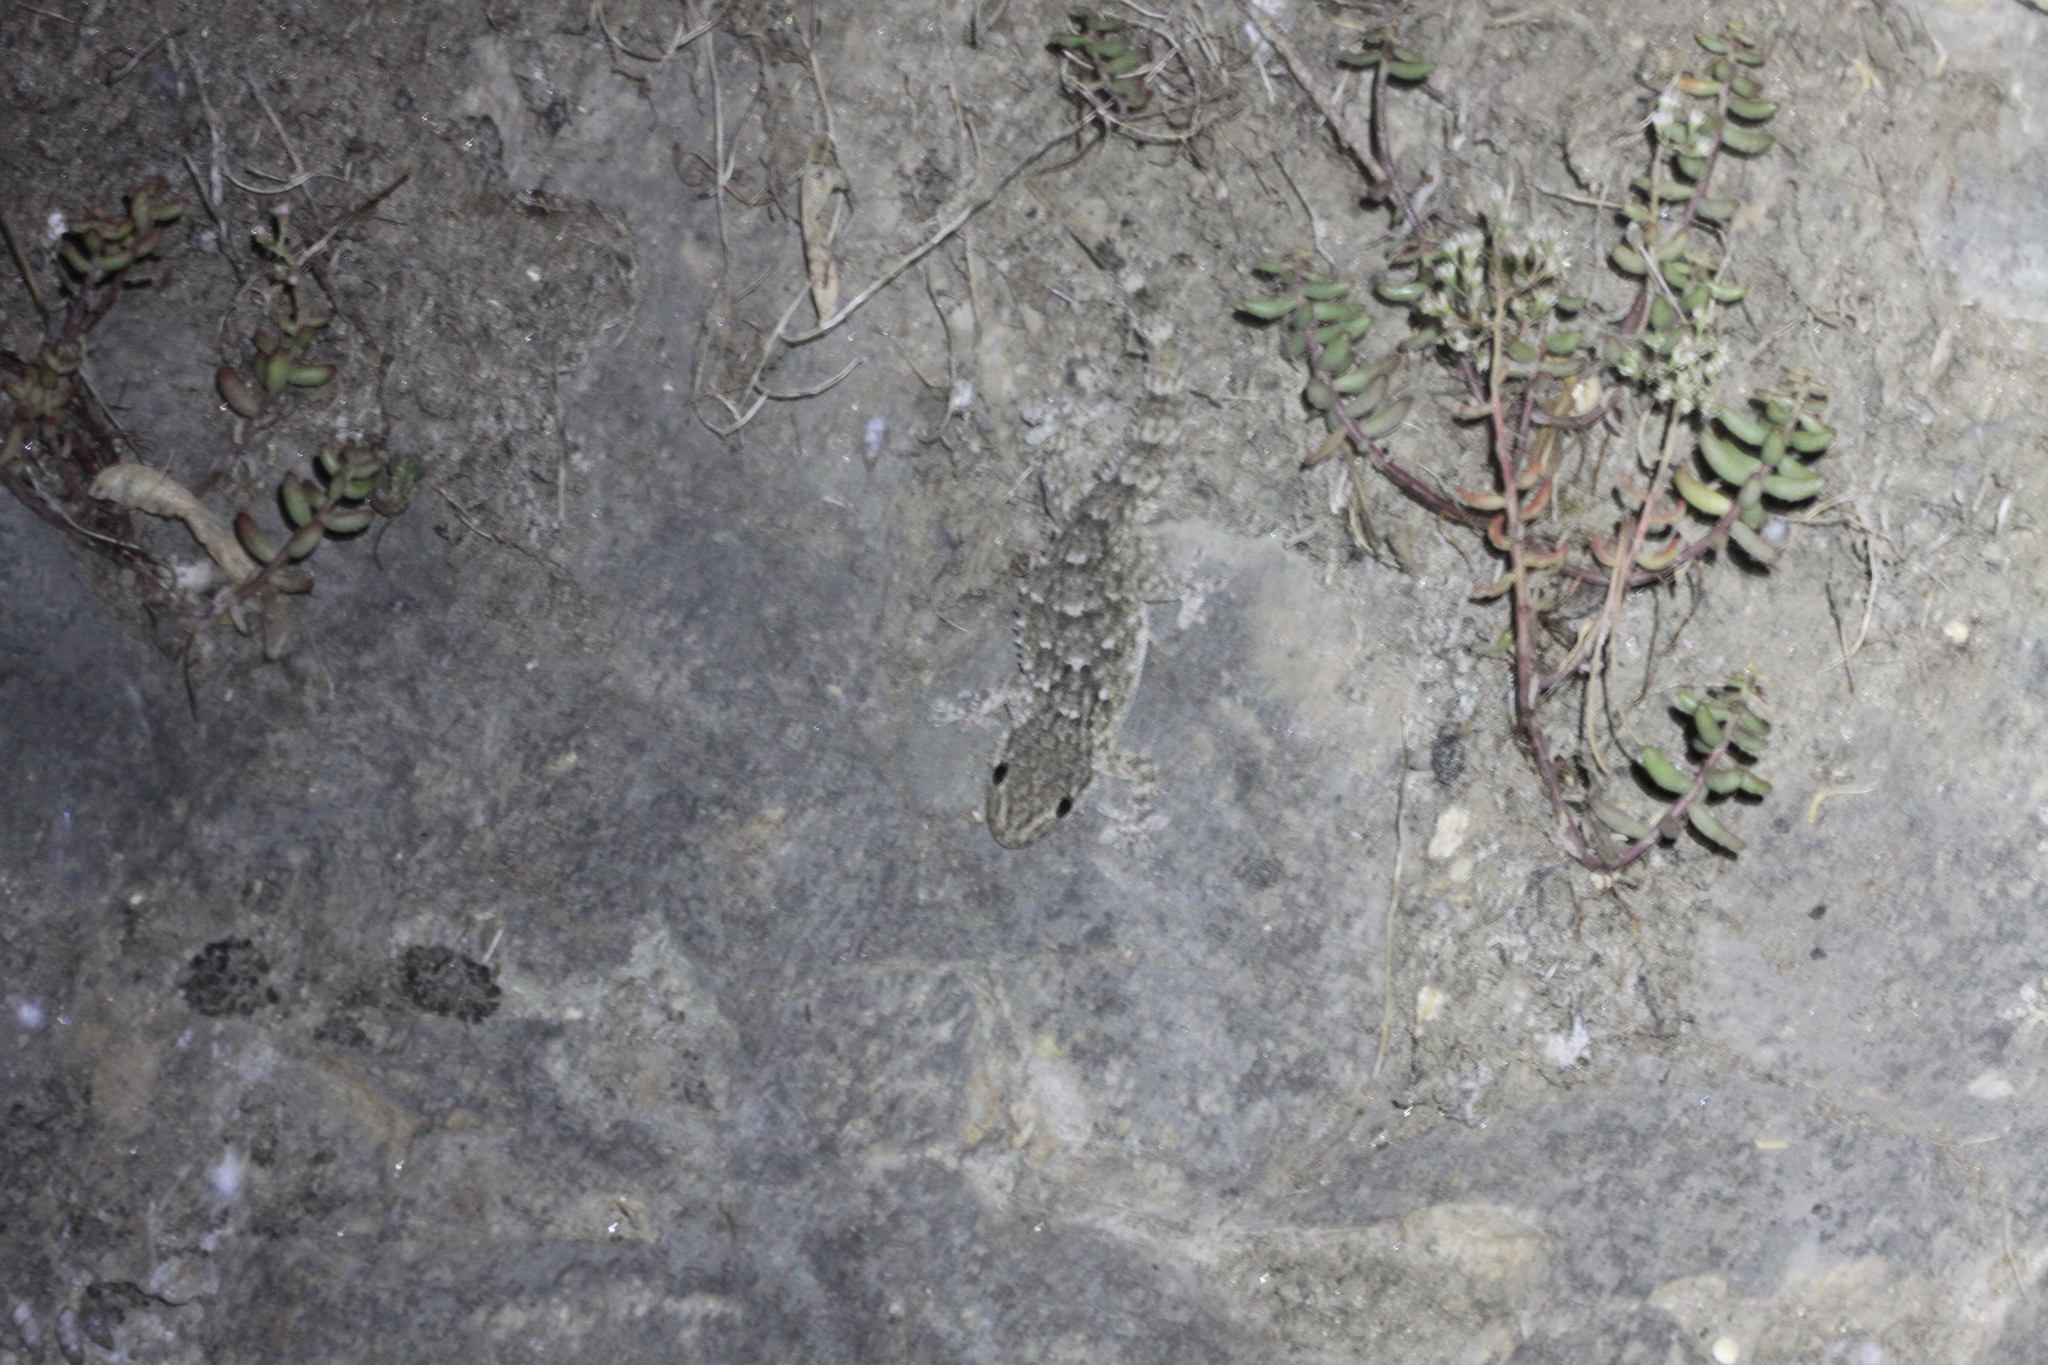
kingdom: Animalia
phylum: Chordata
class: Squamata
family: Phyllodactylidae
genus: Tarentola
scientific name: Tarentola mauritanica
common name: Moorish gecko
